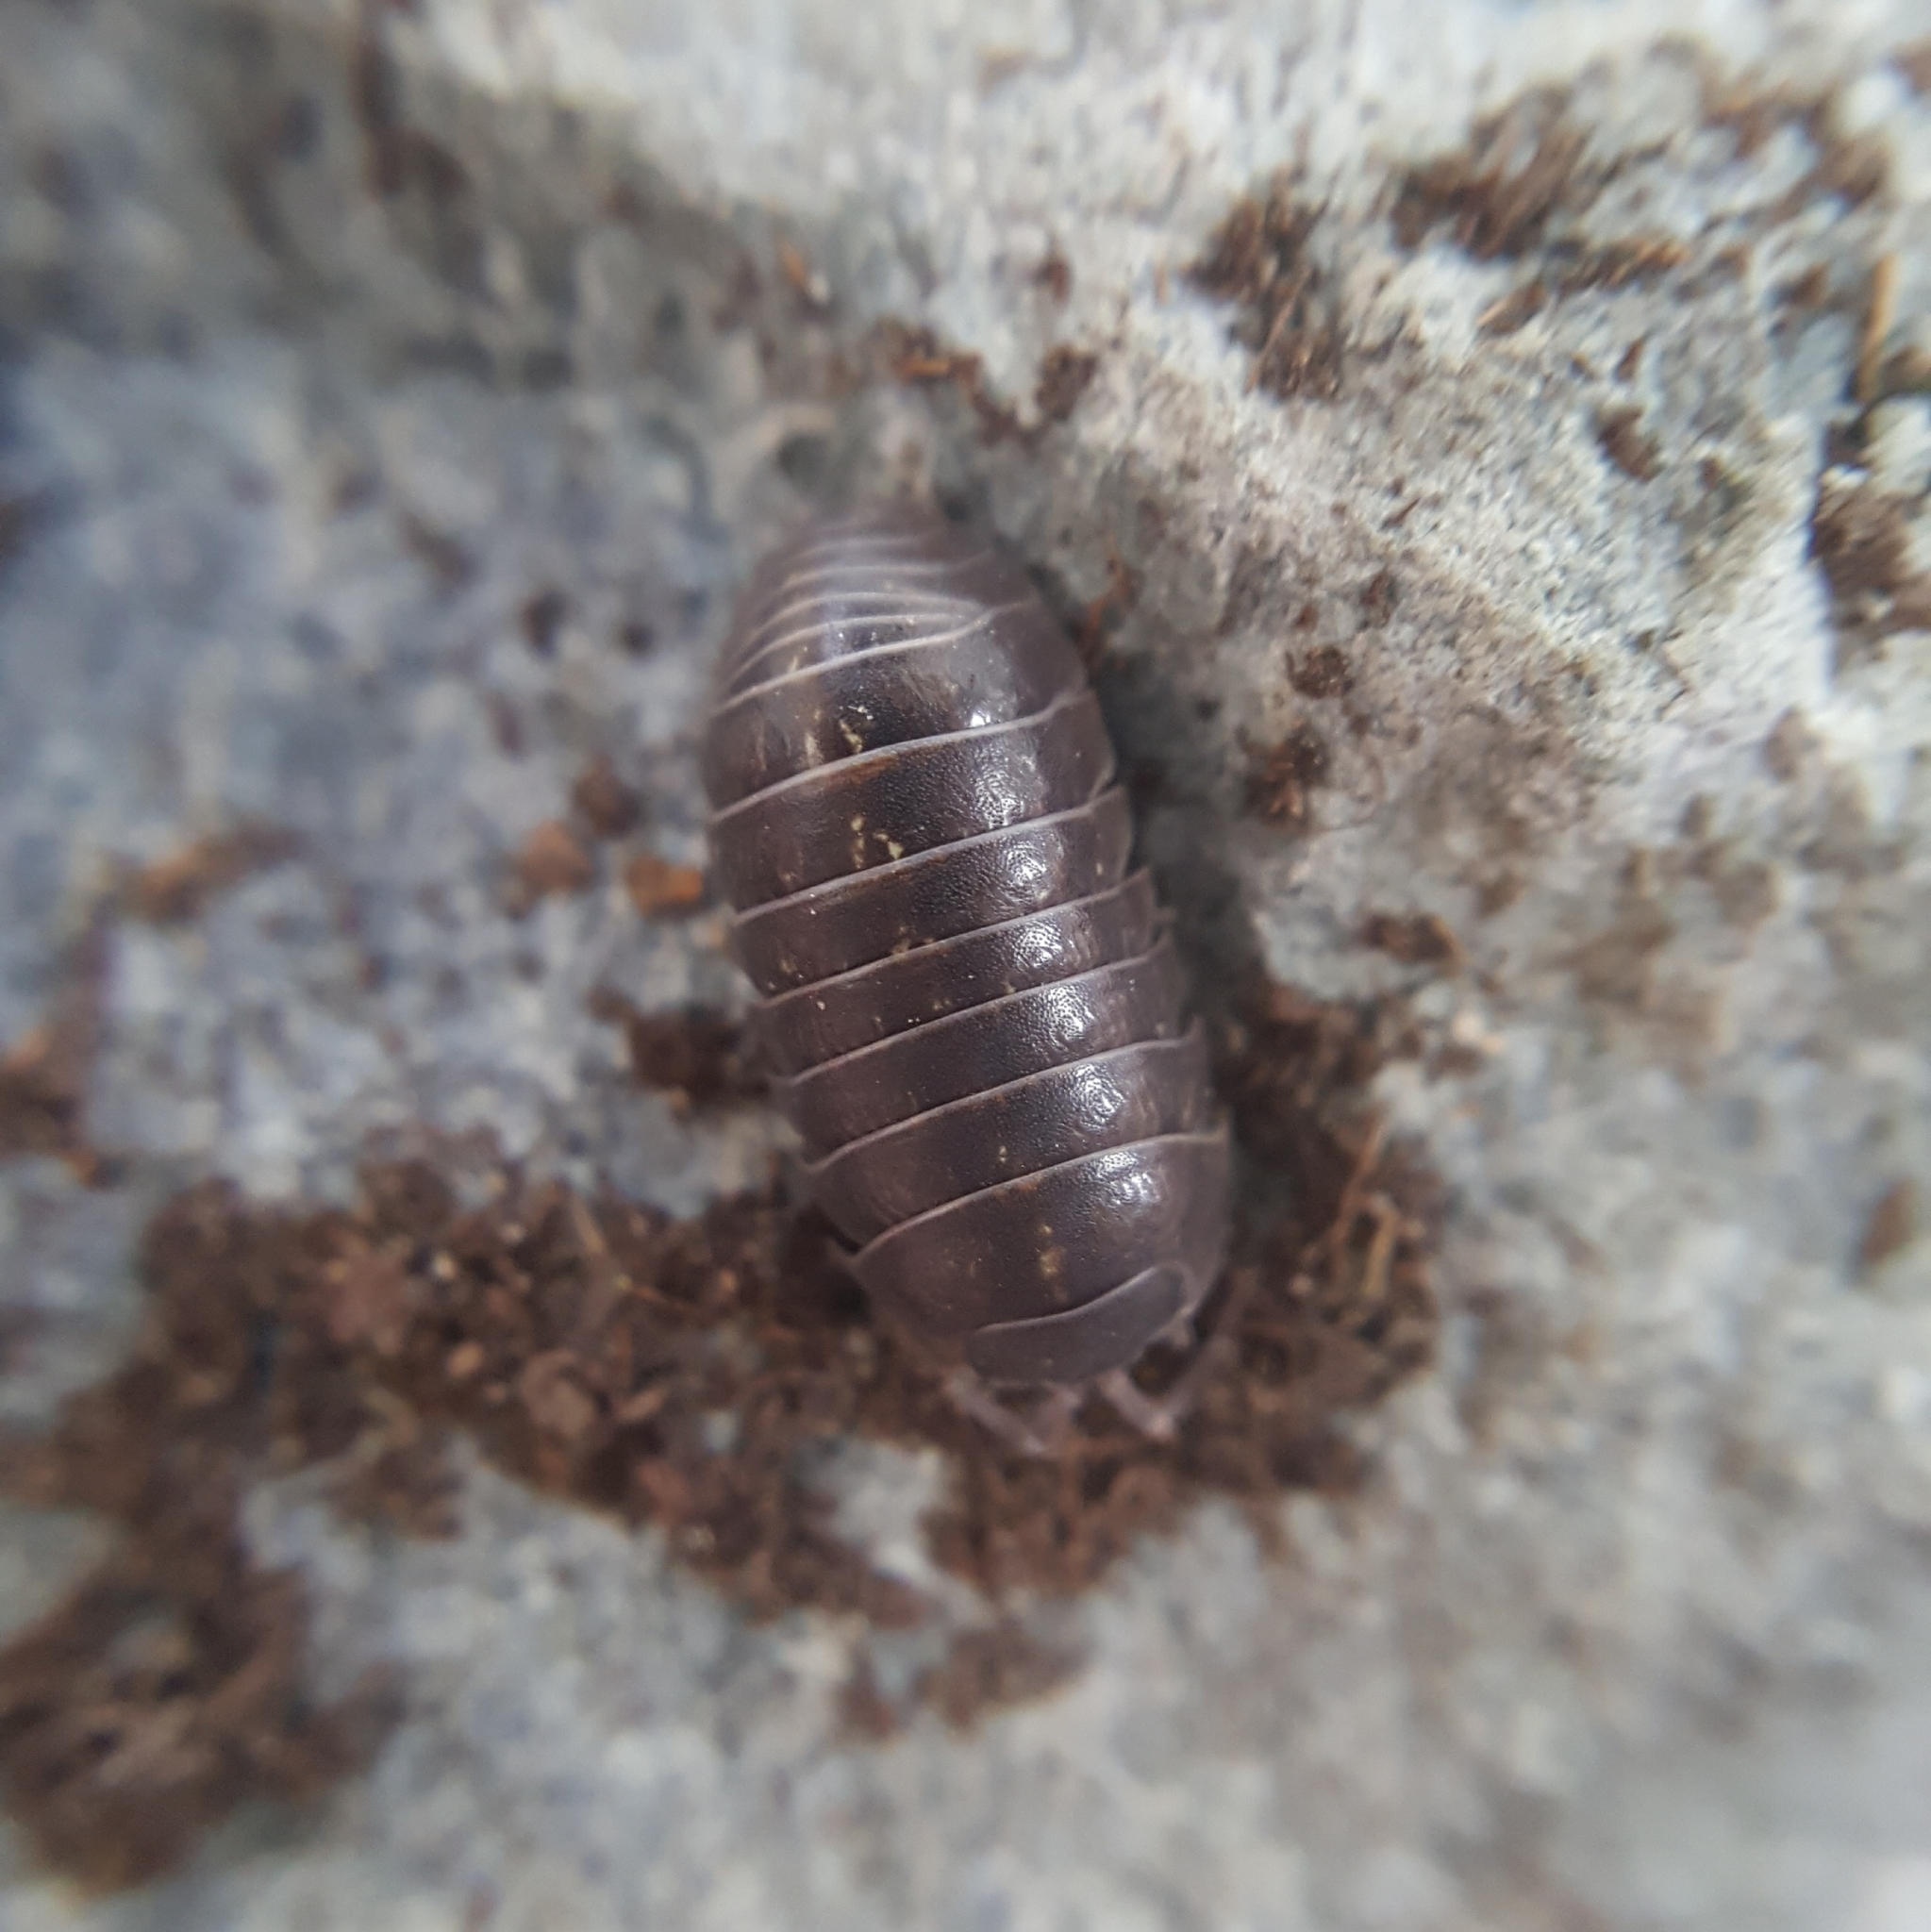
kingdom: Animalia
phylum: Arthropoda
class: Malacostraca
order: Isopoda
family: Armadillidiidae
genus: Armadillidium
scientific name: Armadillidium vulgare
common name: Common pill woodlouse
